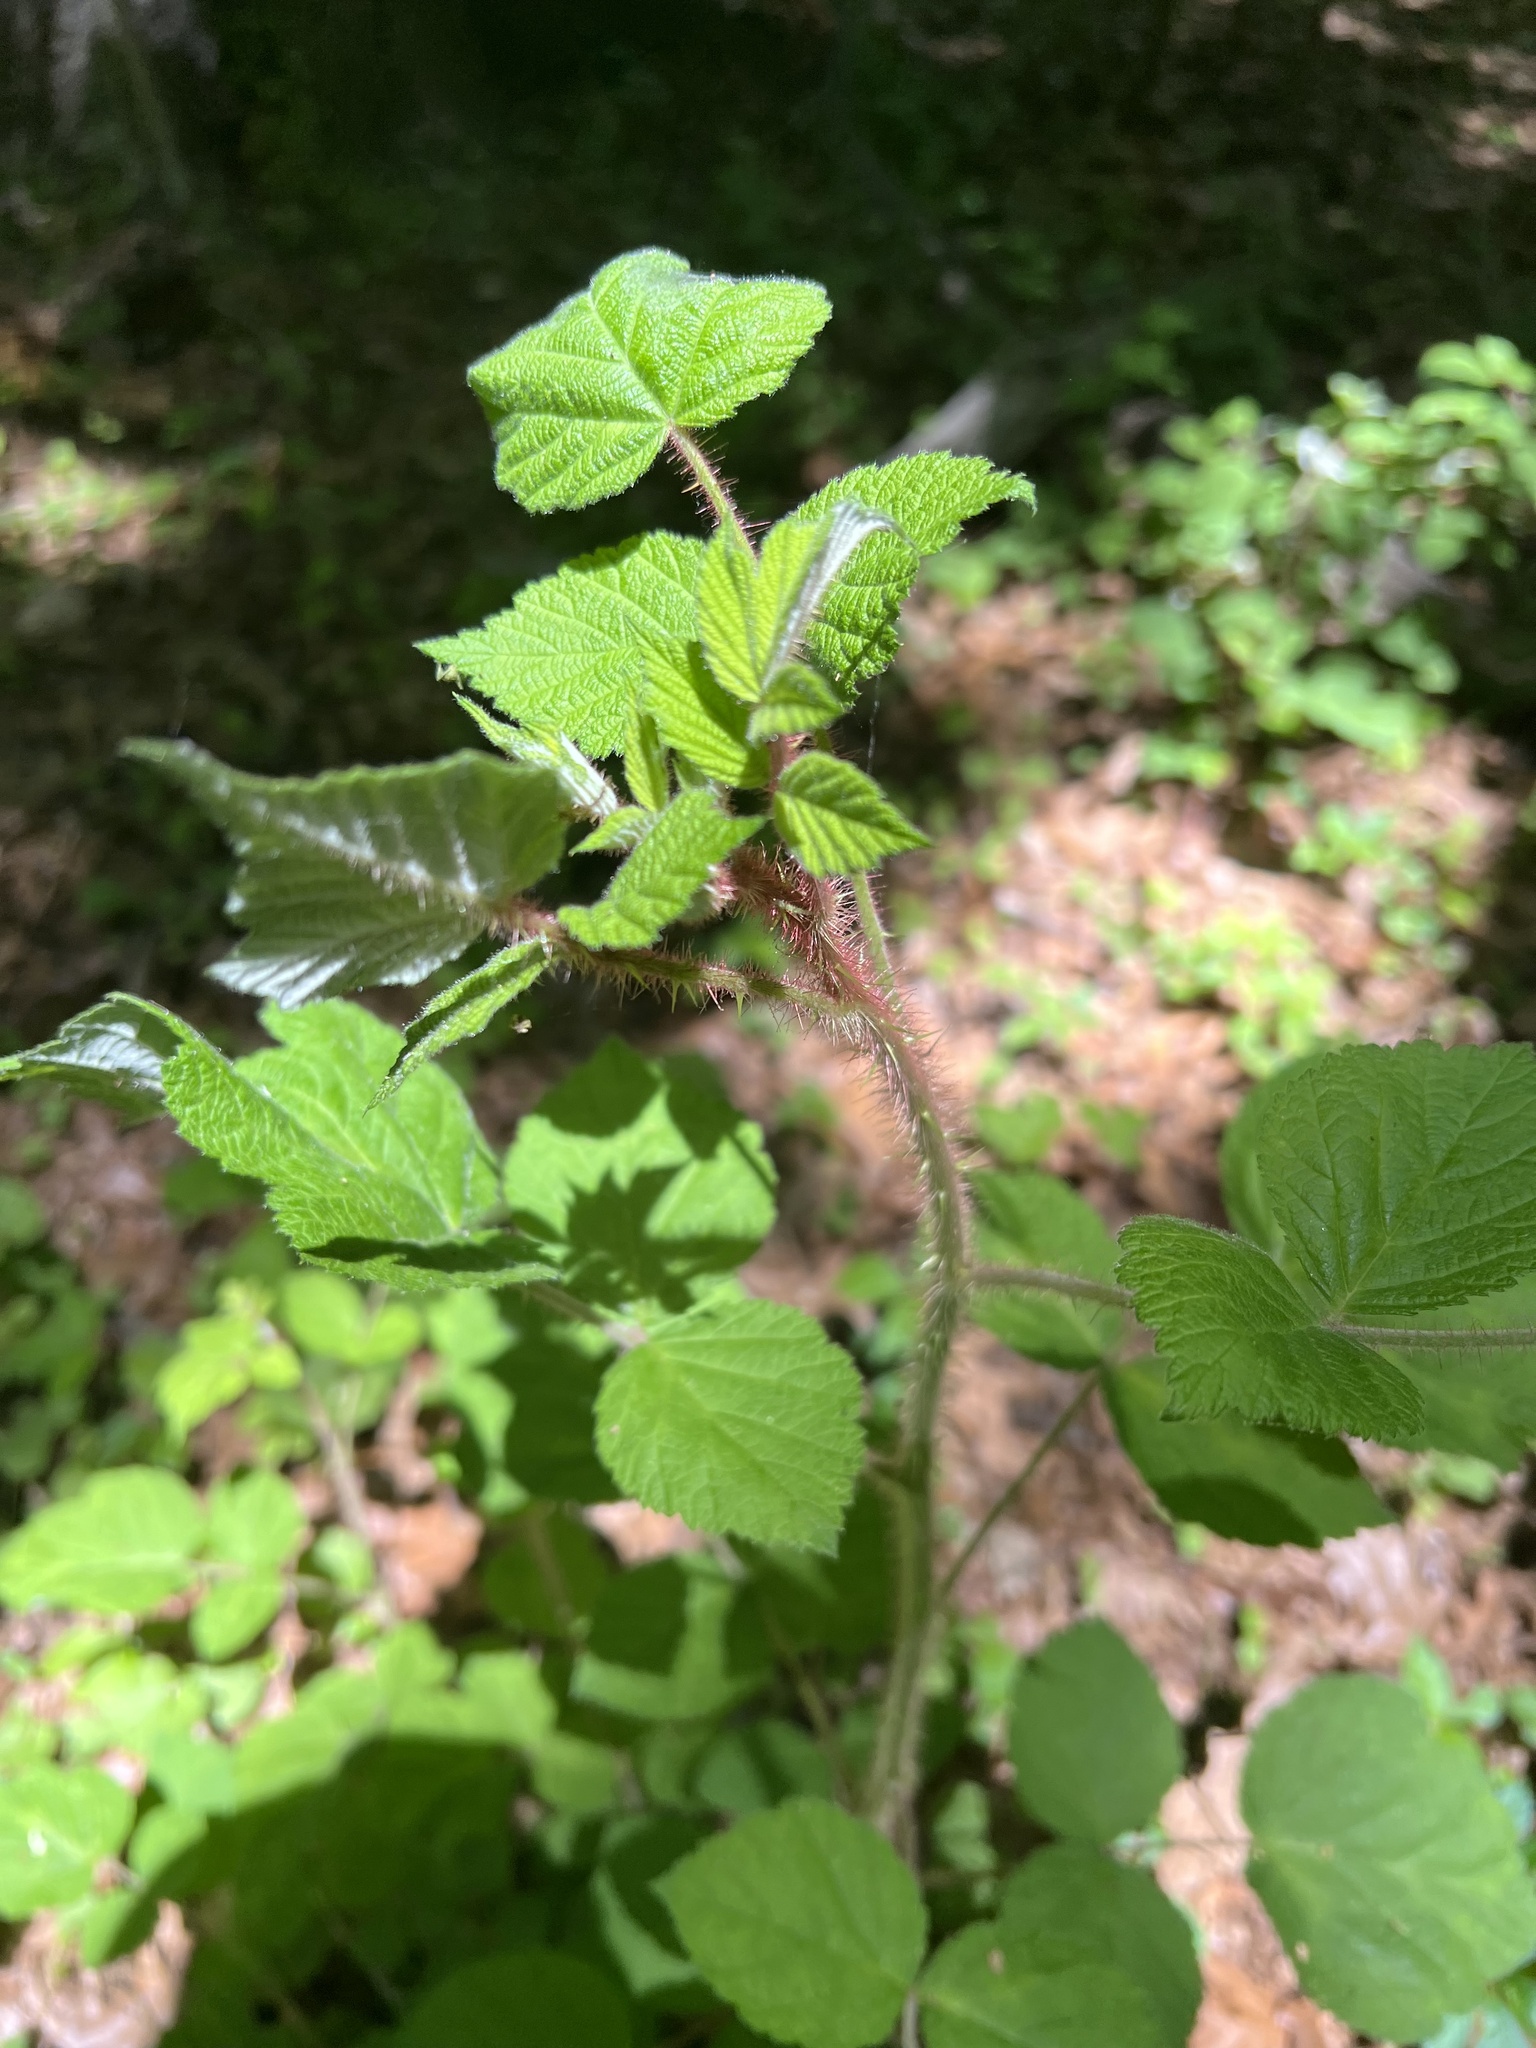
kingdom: Plantae
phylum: Tracheophyta
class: Magnoliopsida
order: Rosales
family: Rosaceae
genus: Rubus
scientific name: Rubus phoenicolasius
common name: Japanese wineberry
